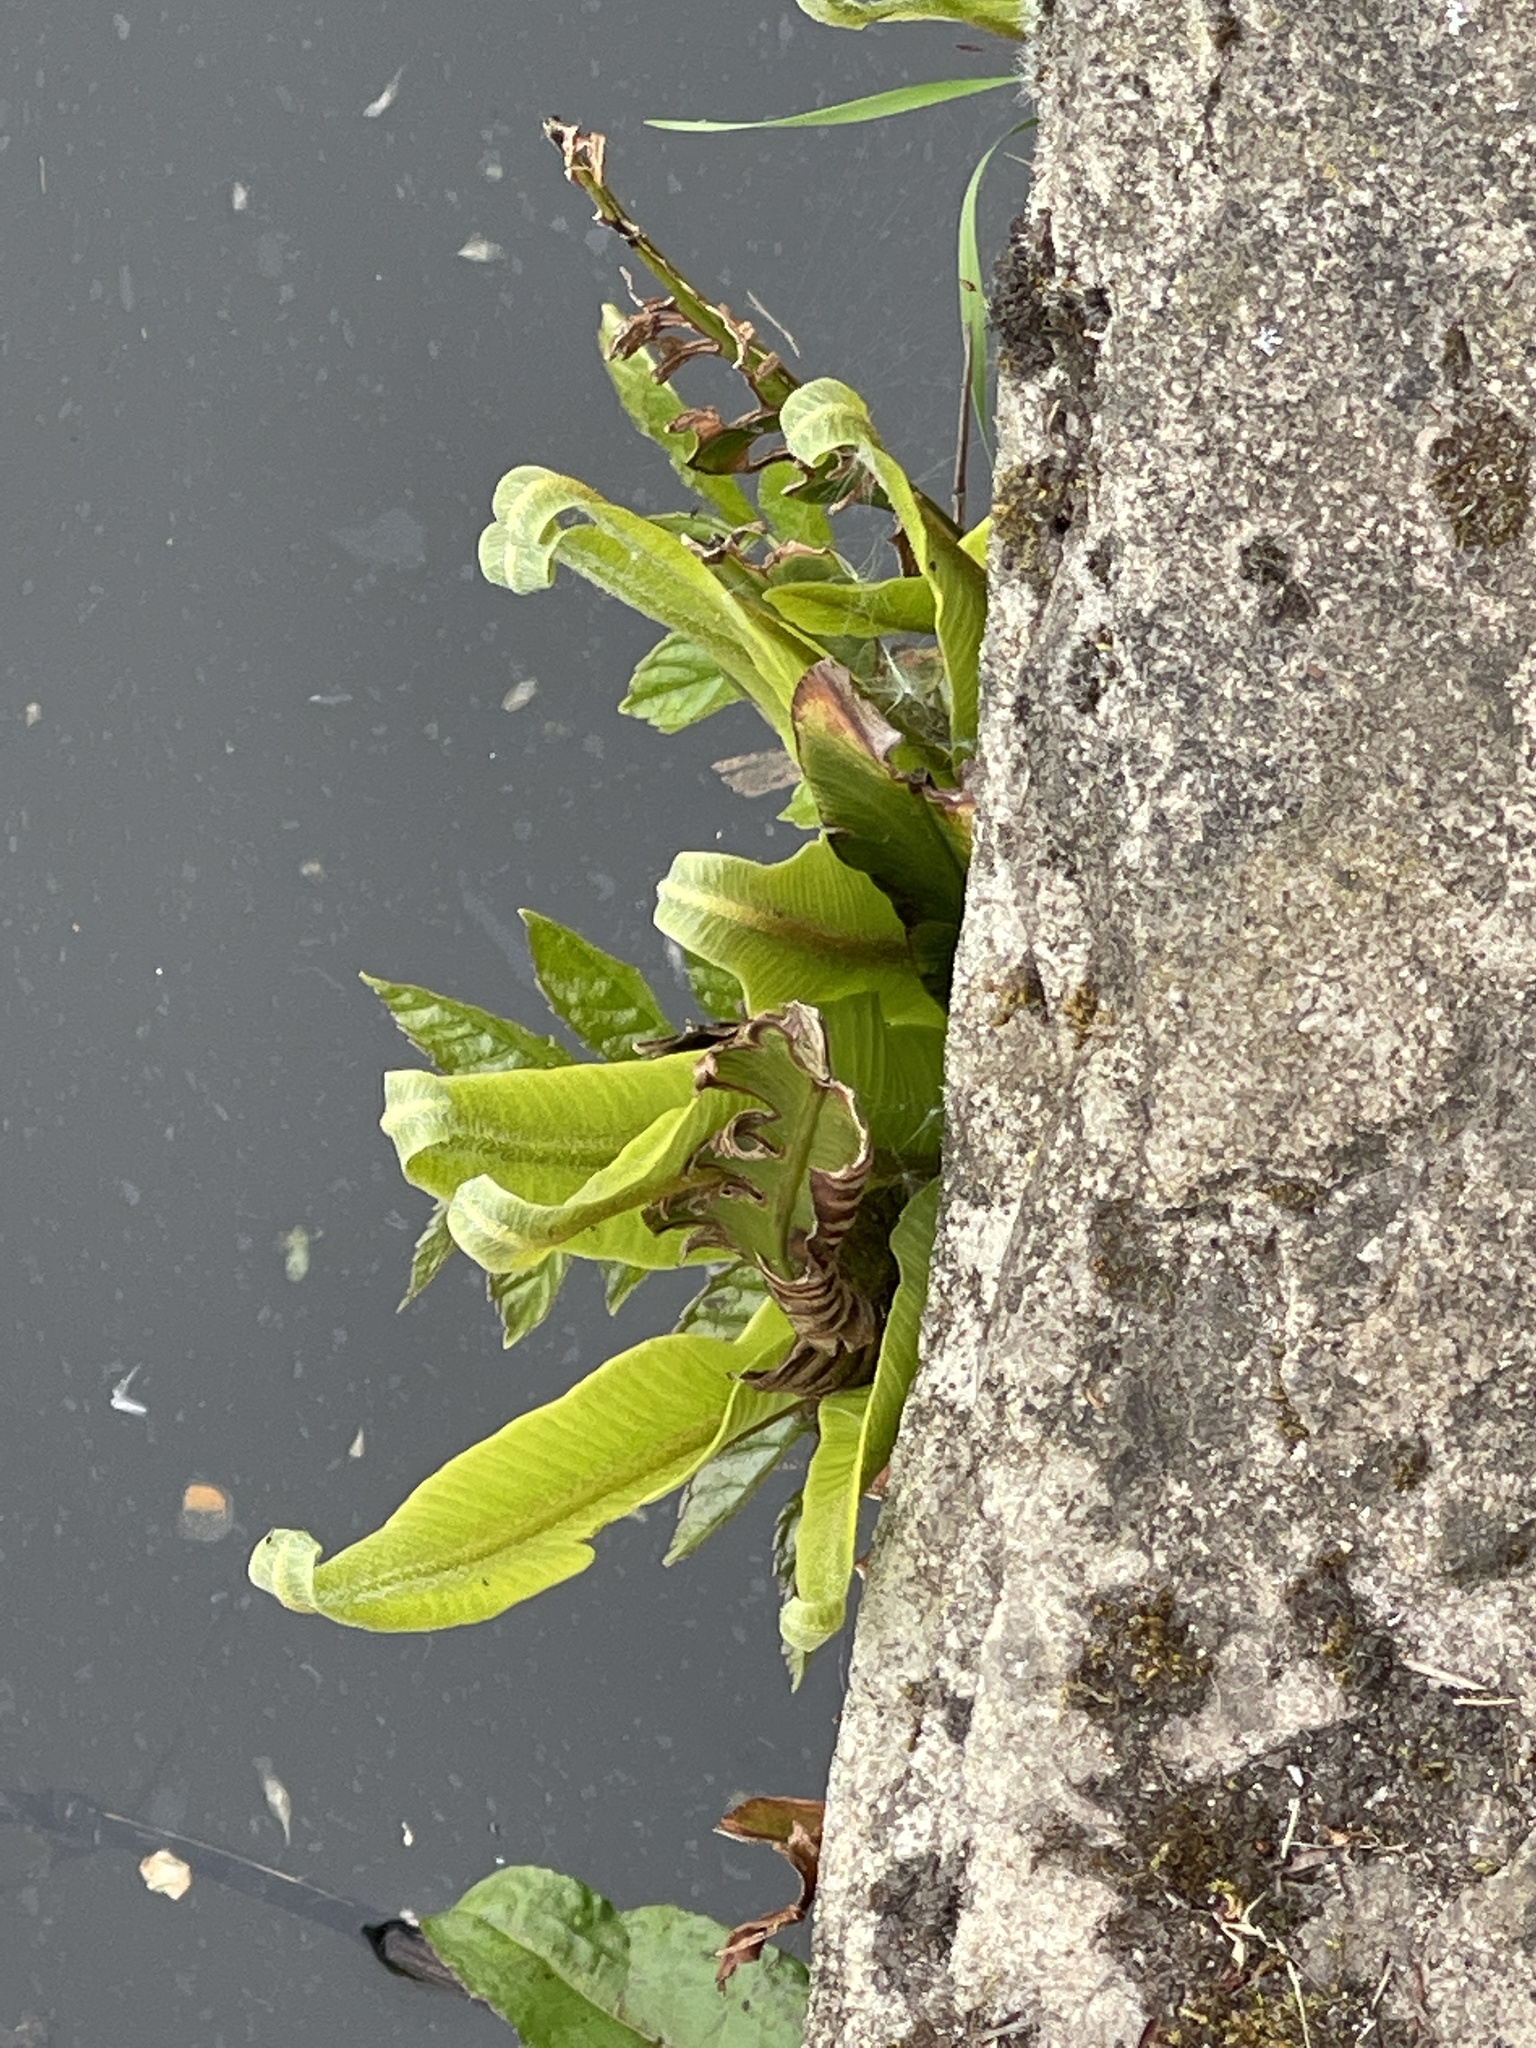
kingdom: Plantae
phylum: Tracheophyta
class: Polypodiopsida
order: Polypodiales
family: Aspleniaceae
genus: Asplenium
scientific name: Asplenium scolopendrium
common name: Hart's-tongue fern
